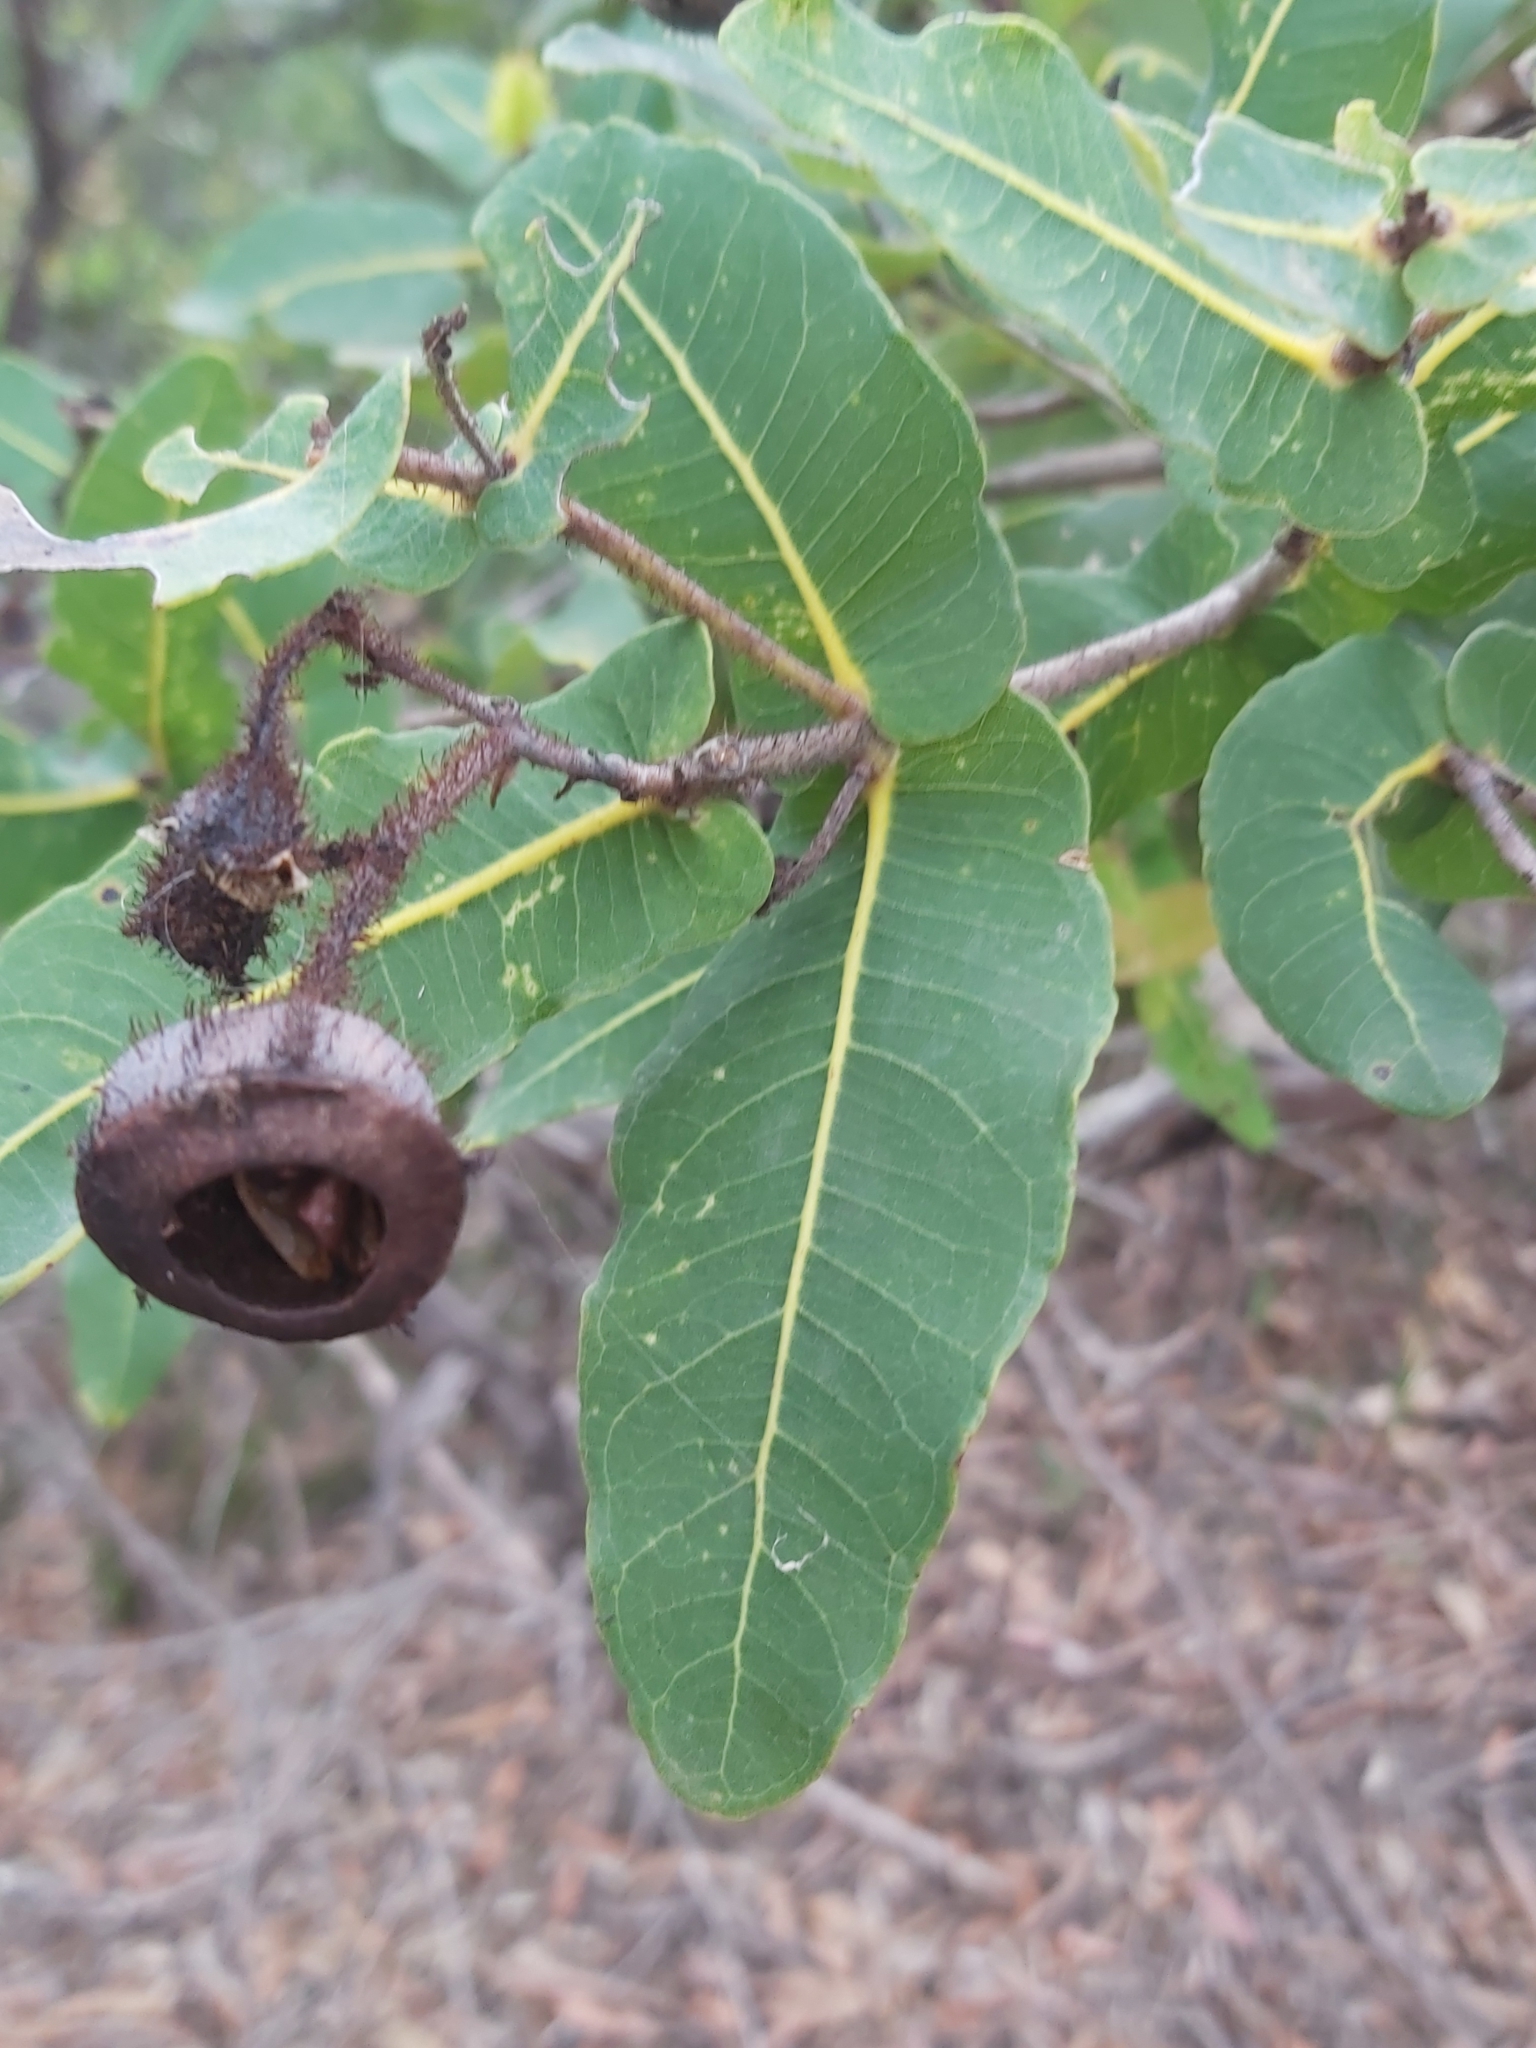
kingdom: Plantae
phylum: Tracheophyta
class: Magnoliopsida
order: Myrtales
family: Myrtaceae
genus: Angophora
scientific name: Angophora hispida
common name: Dwarf-apple
